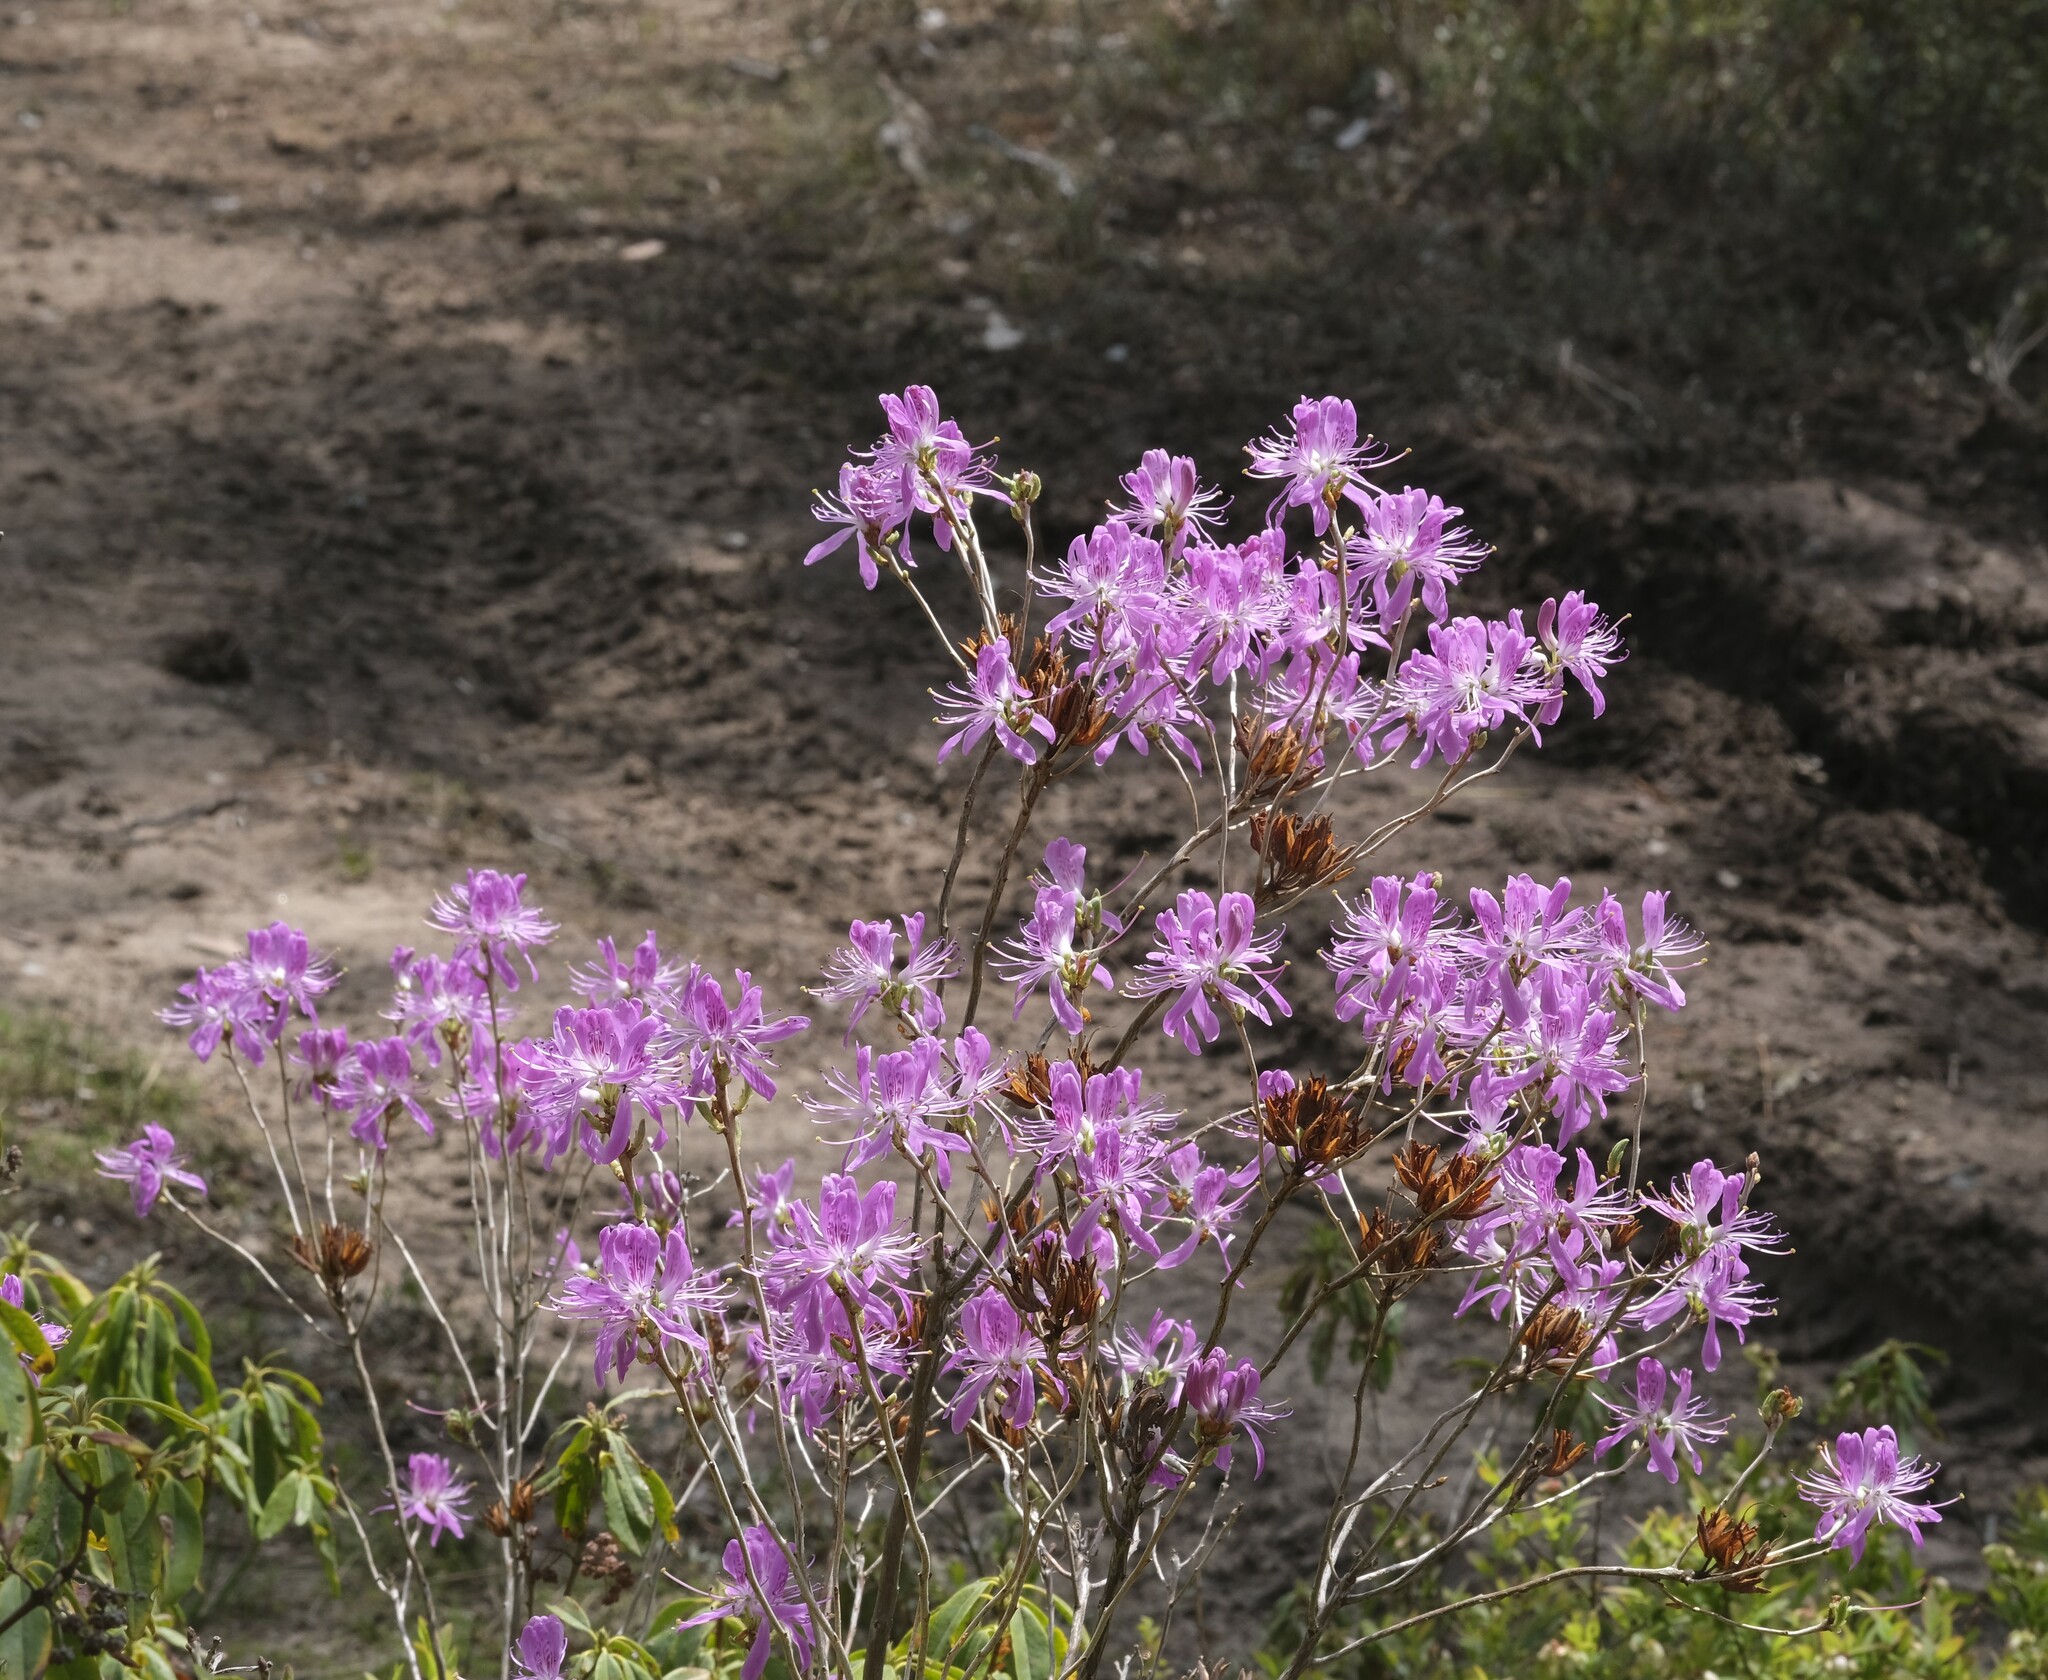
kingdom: Plantae
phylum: Tracheophyta
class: Magnoliopsida
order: Ericales
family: Ericaceae
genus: Rhododendron
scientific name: Rhododendron canadense
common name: Rhodora
